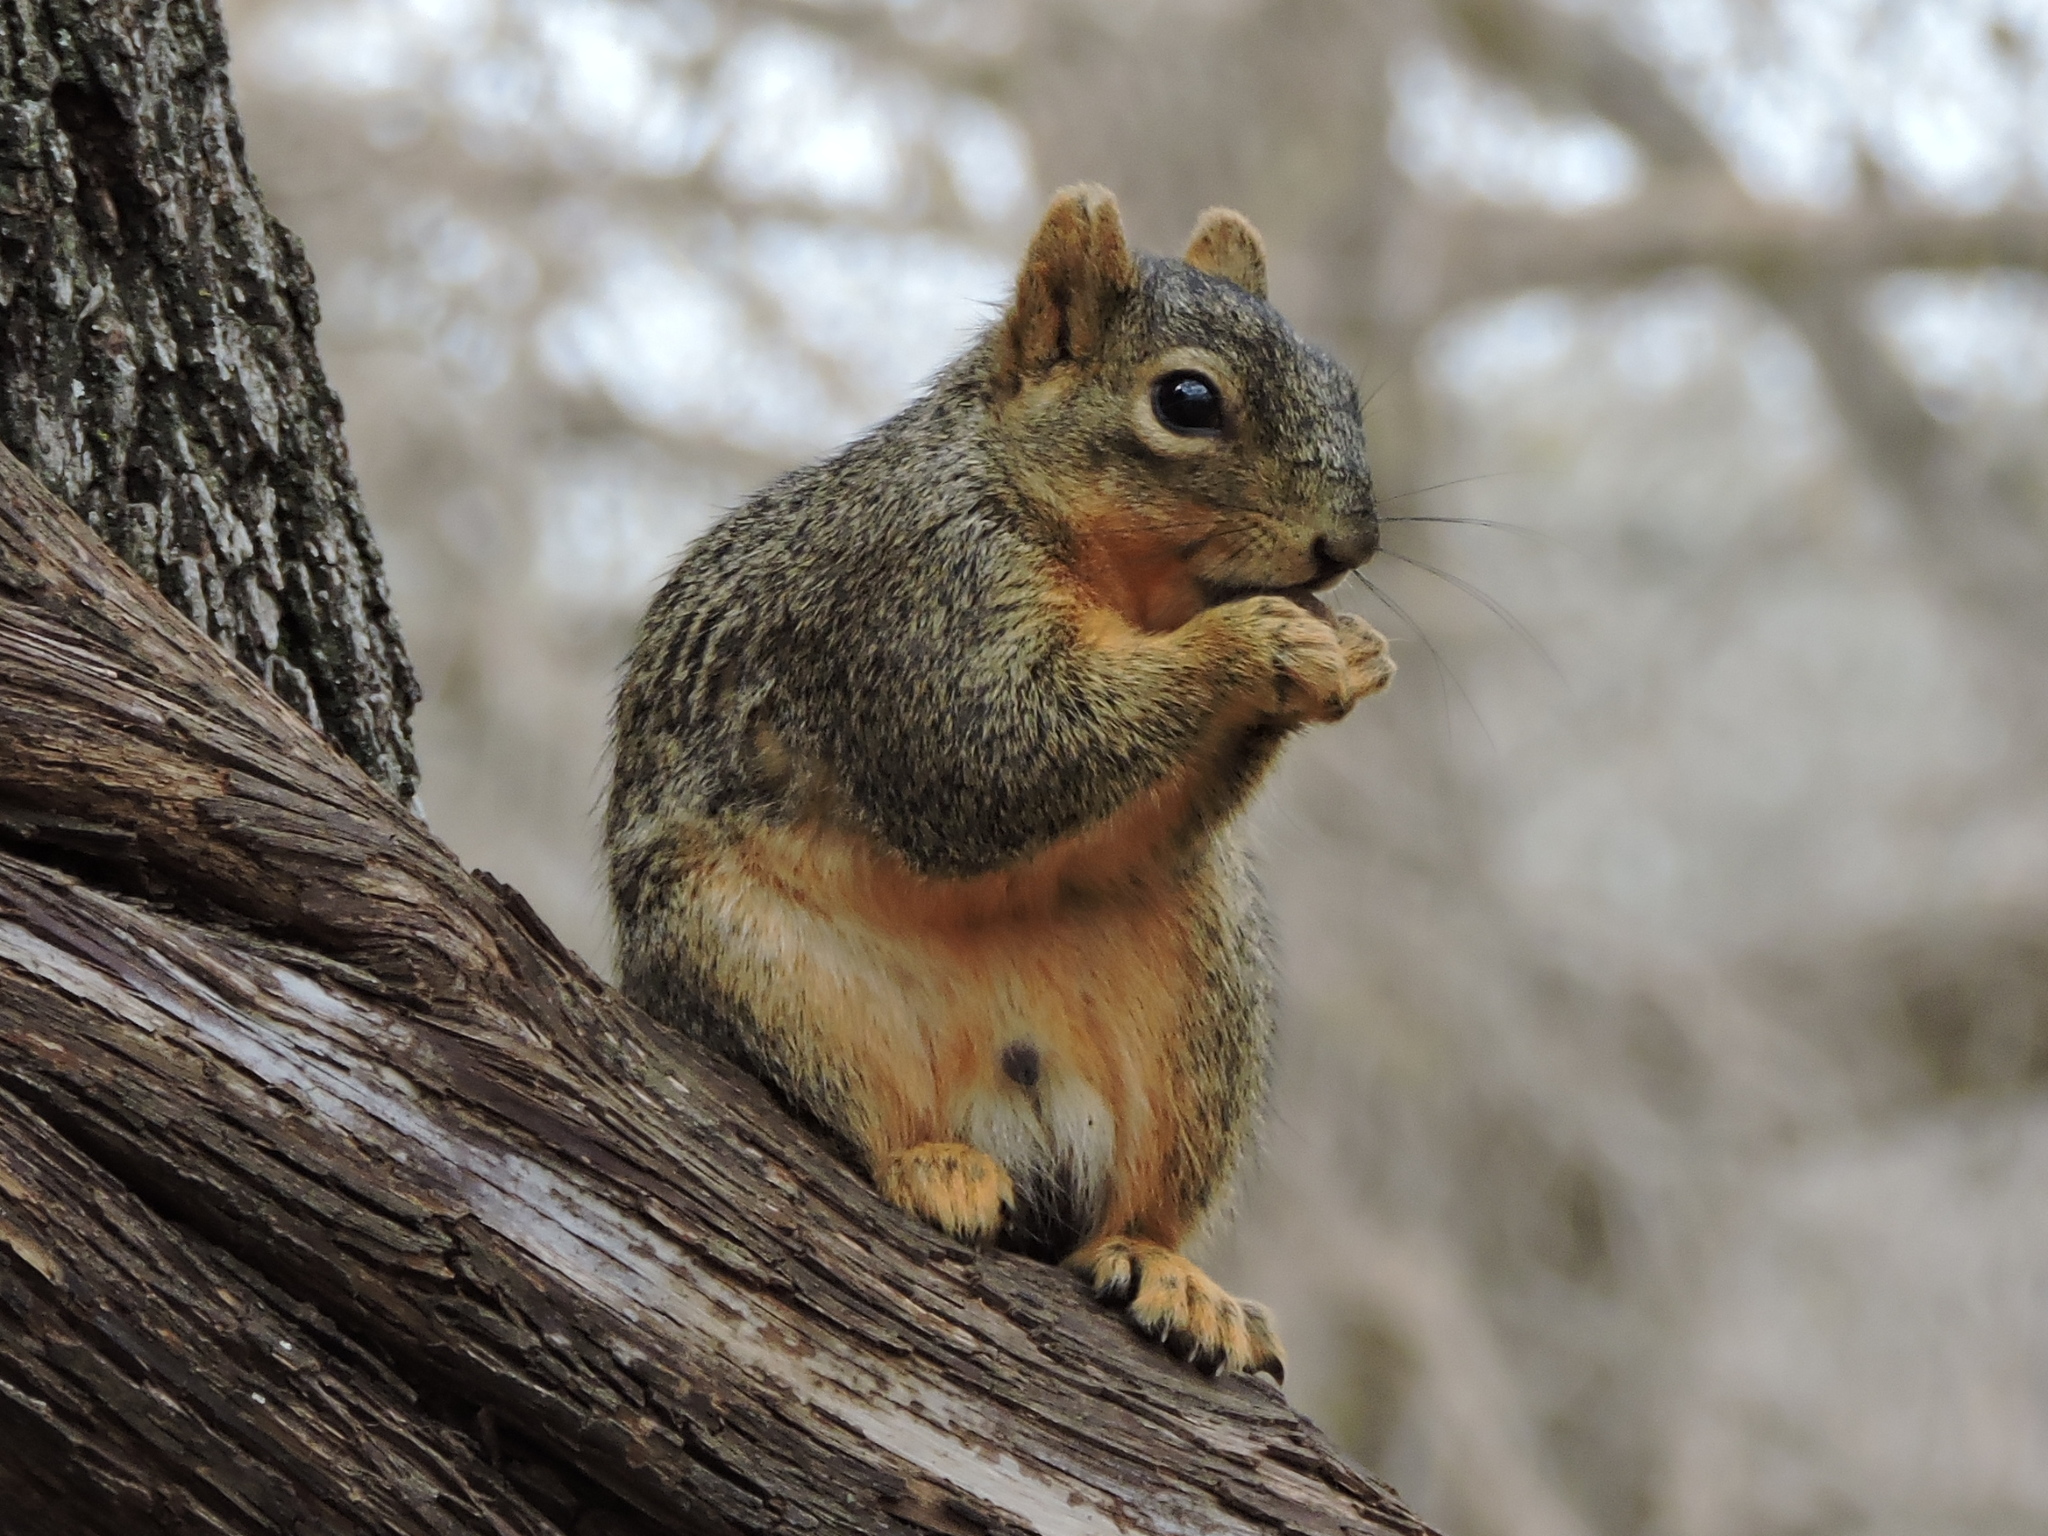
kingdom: Animalia
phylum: Chordata
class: Mammalia
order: Rodentia
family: Sciuridae
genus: Sciurus
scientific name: Sciurus niger
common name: Fox squirrel
